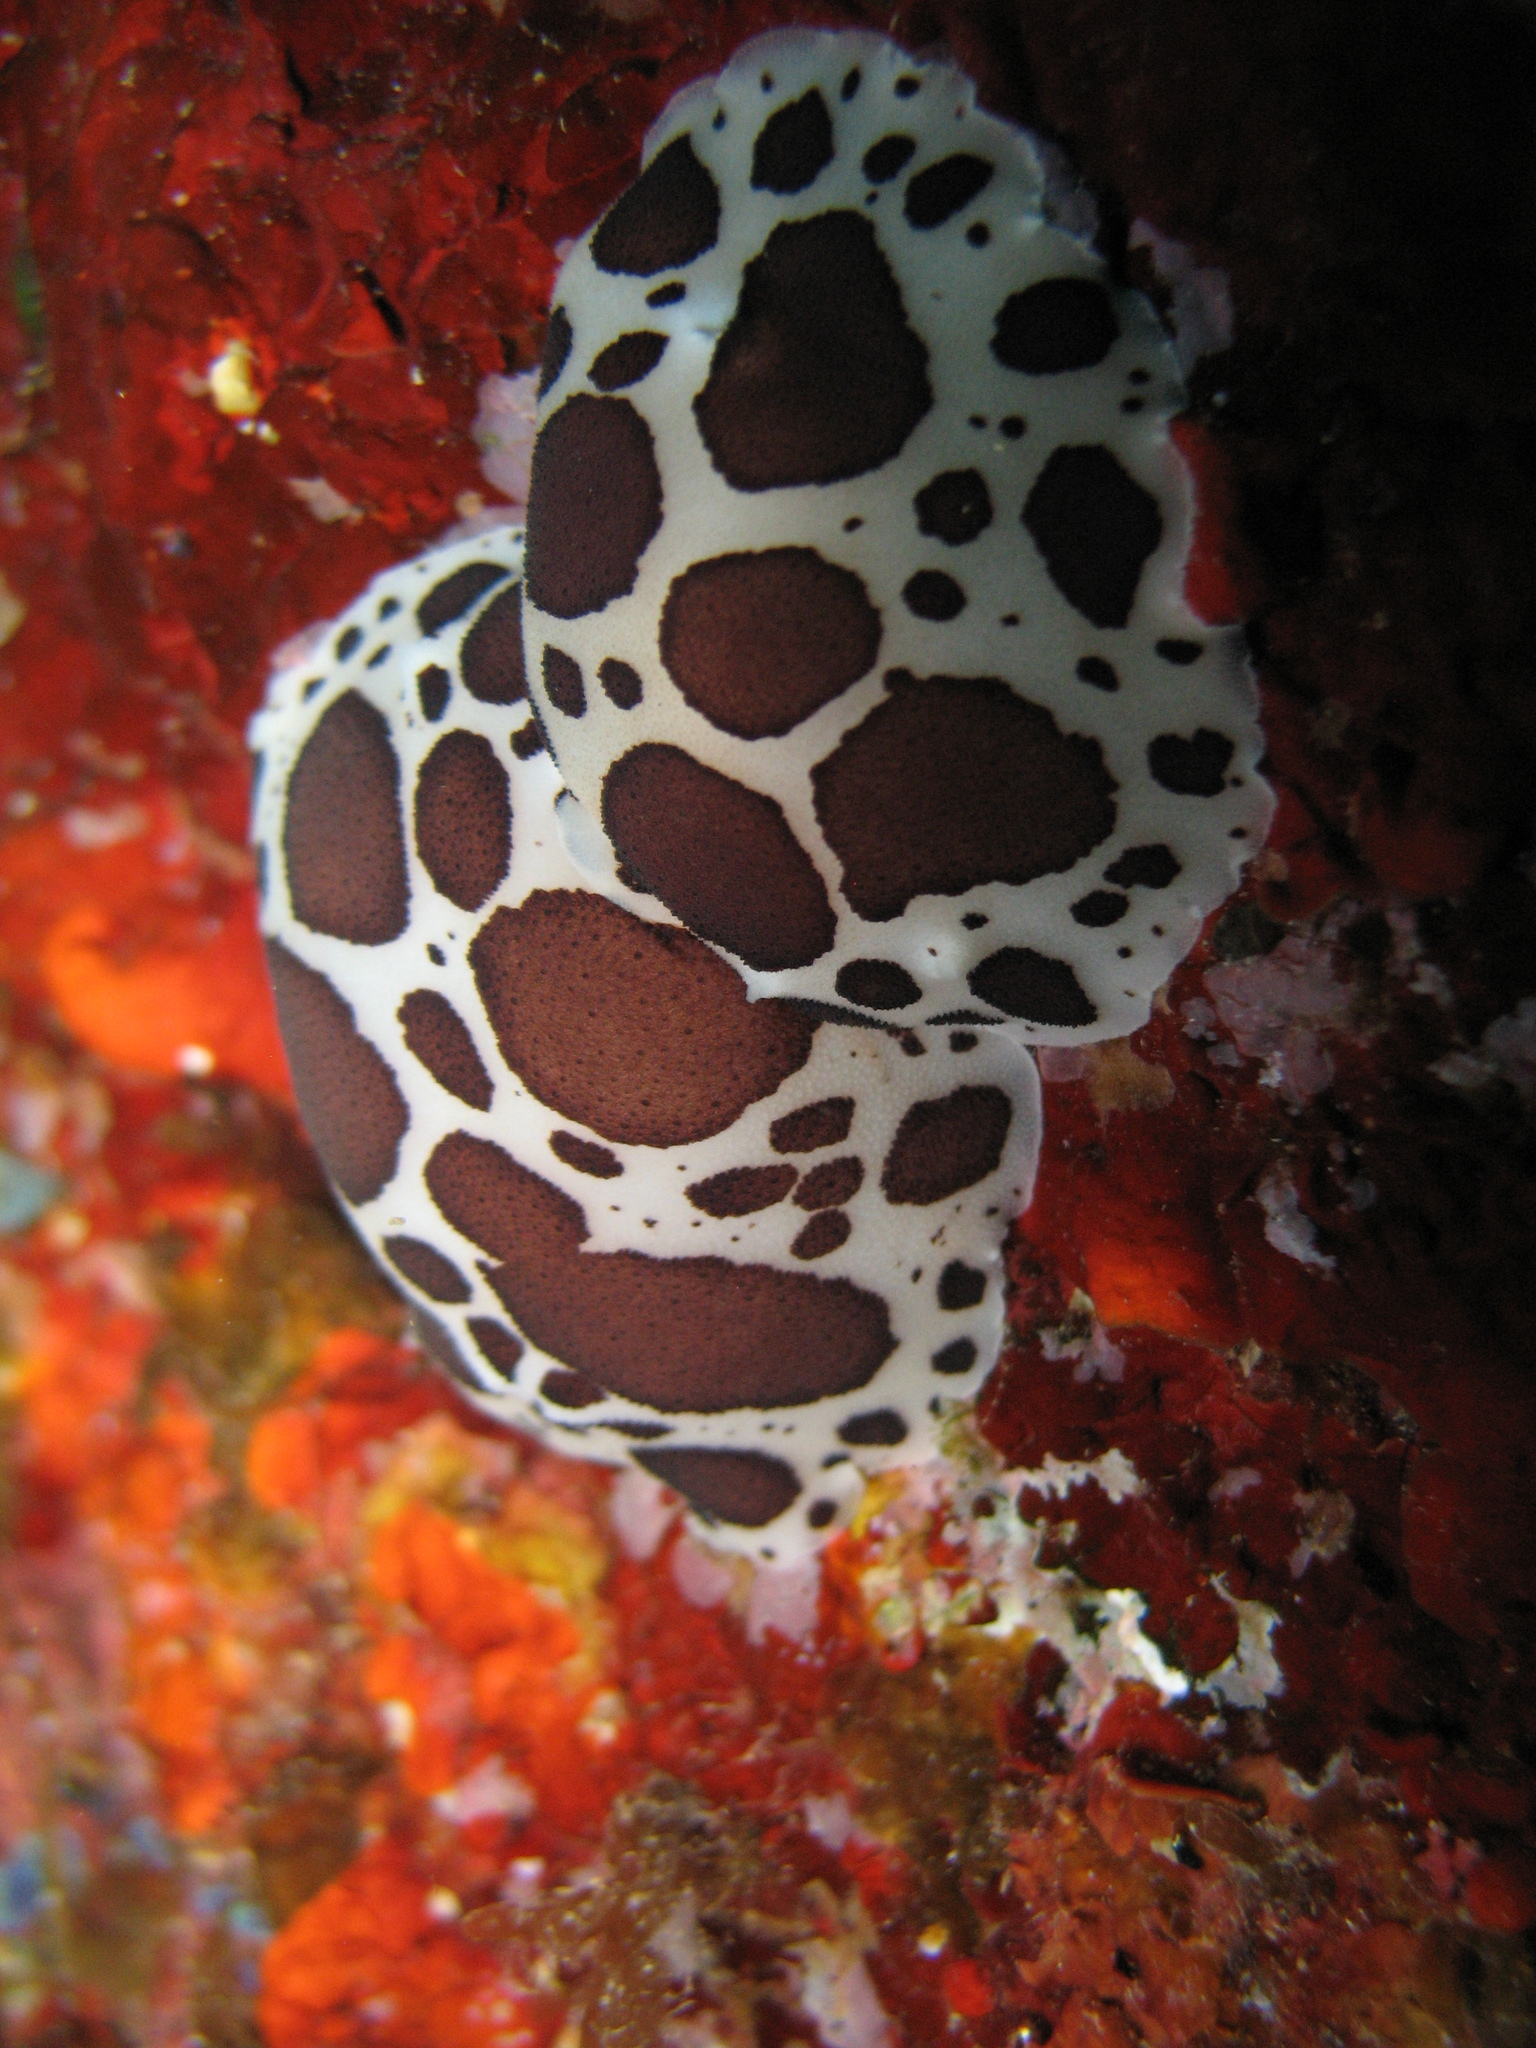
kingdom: Animalia
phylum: Mollusca
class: Gastropoda
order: Nudibranchia
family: Discodorididae
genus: Peltodoris
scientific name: Peltodoris atromaculata
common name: Swiss cow nudibranch
